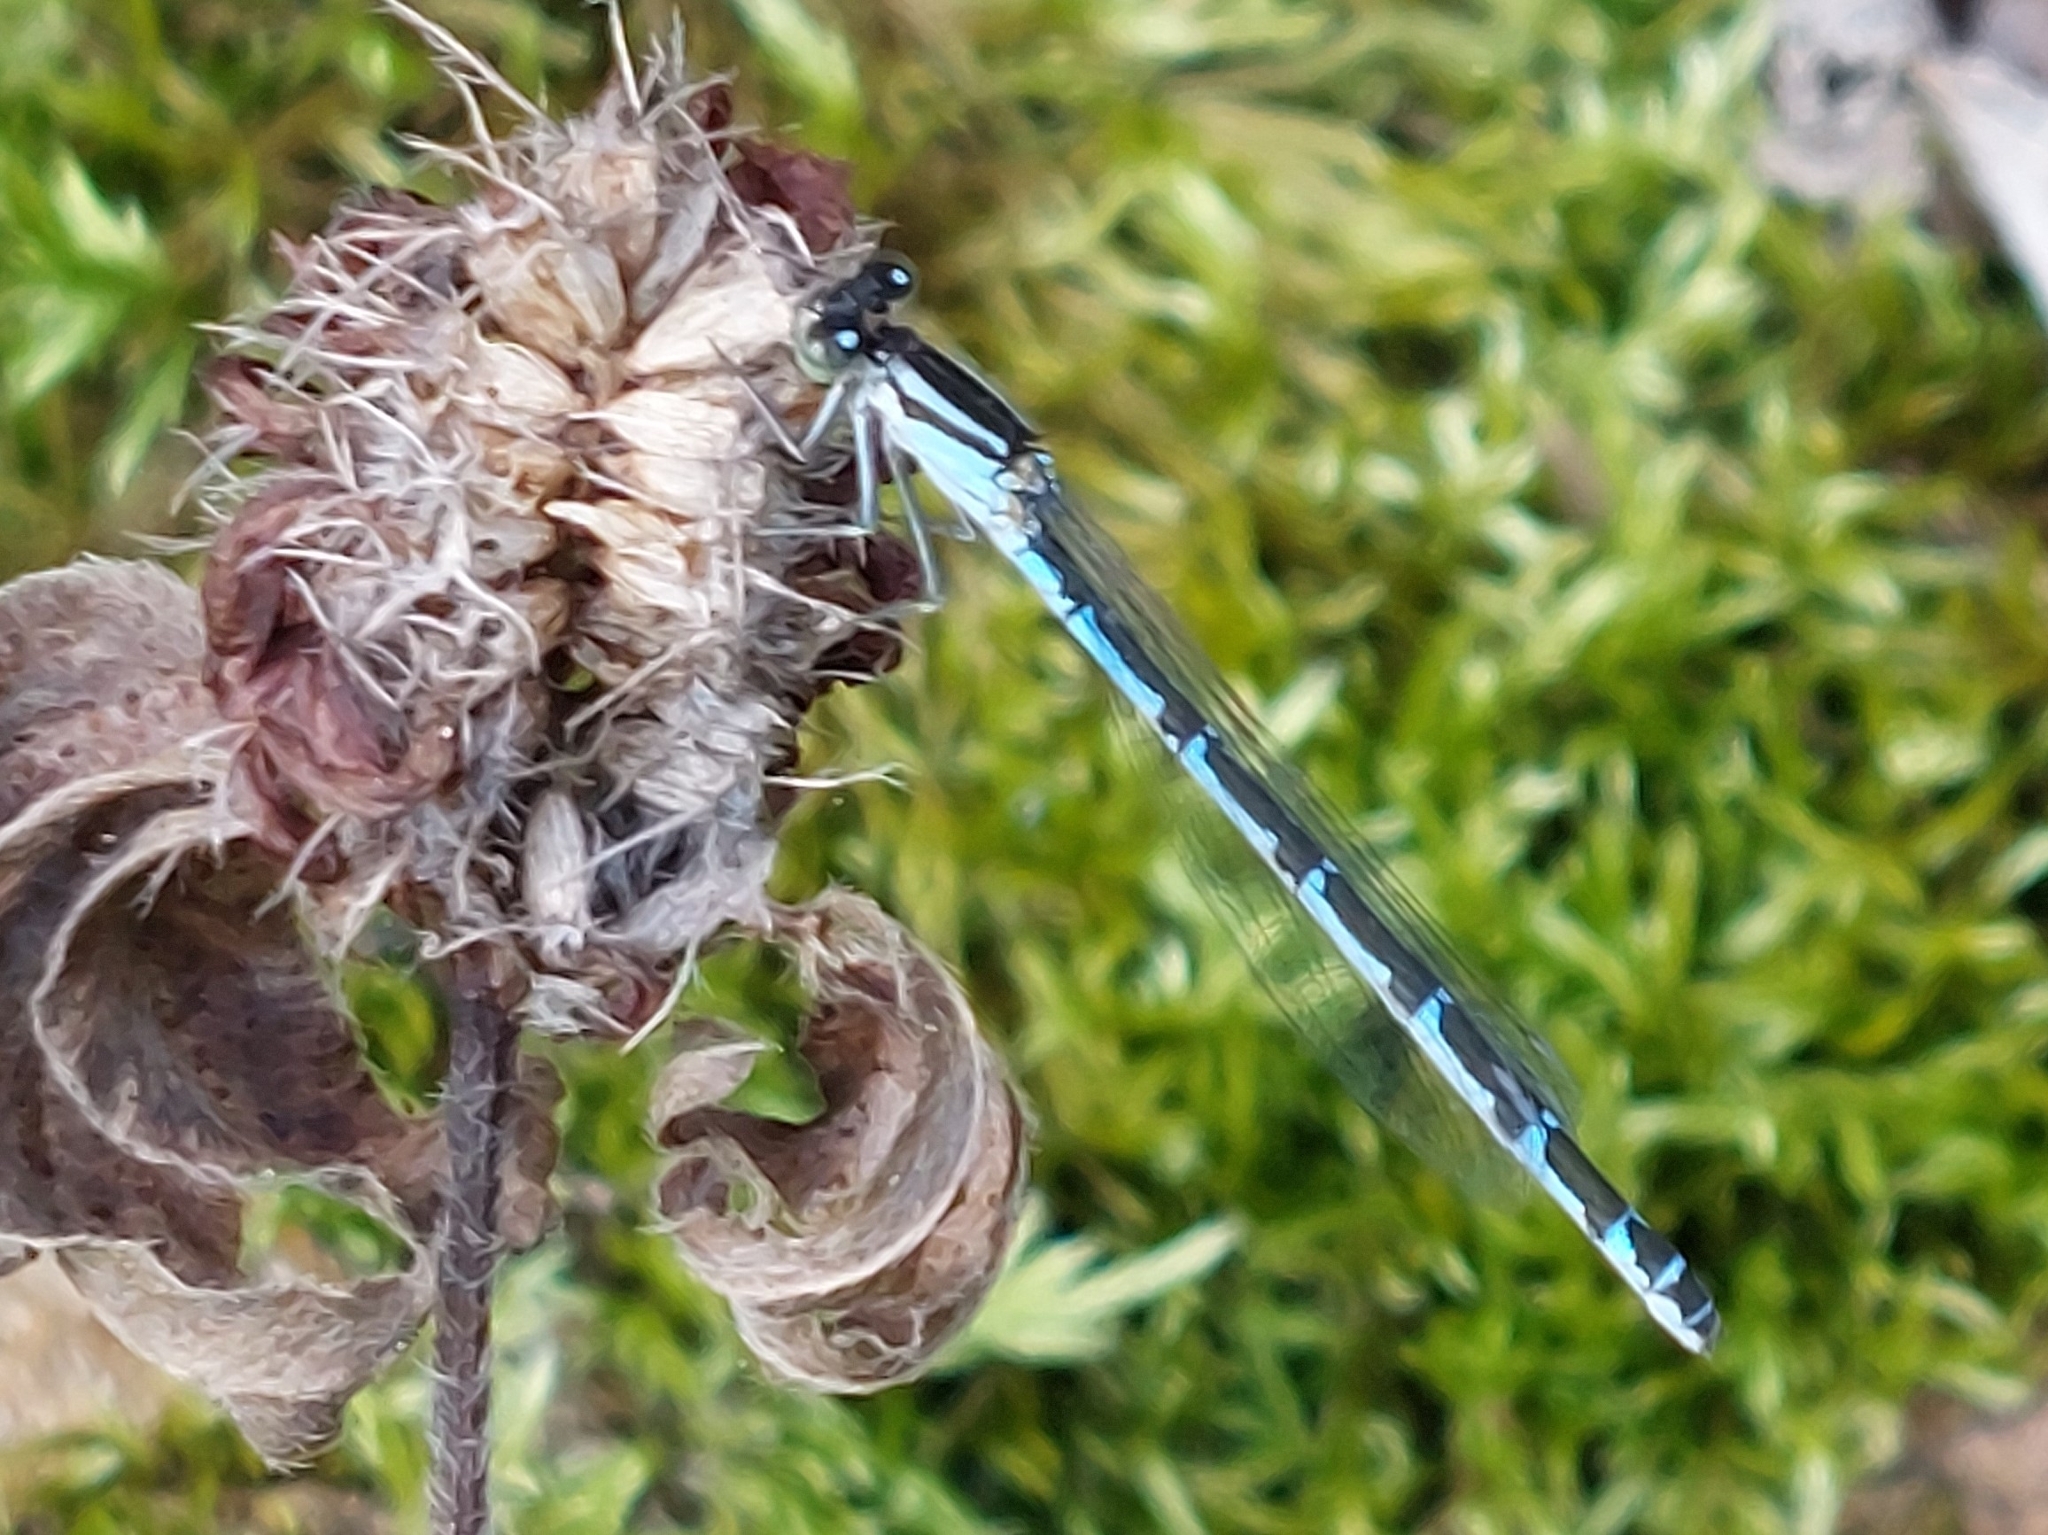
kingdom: Animalia
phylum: Arthropoda
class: Insecta
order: Odonata
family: Coenagrionidae
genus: Enallagma
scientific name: Enallagma cyathigerum
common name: Common blue damselfly
